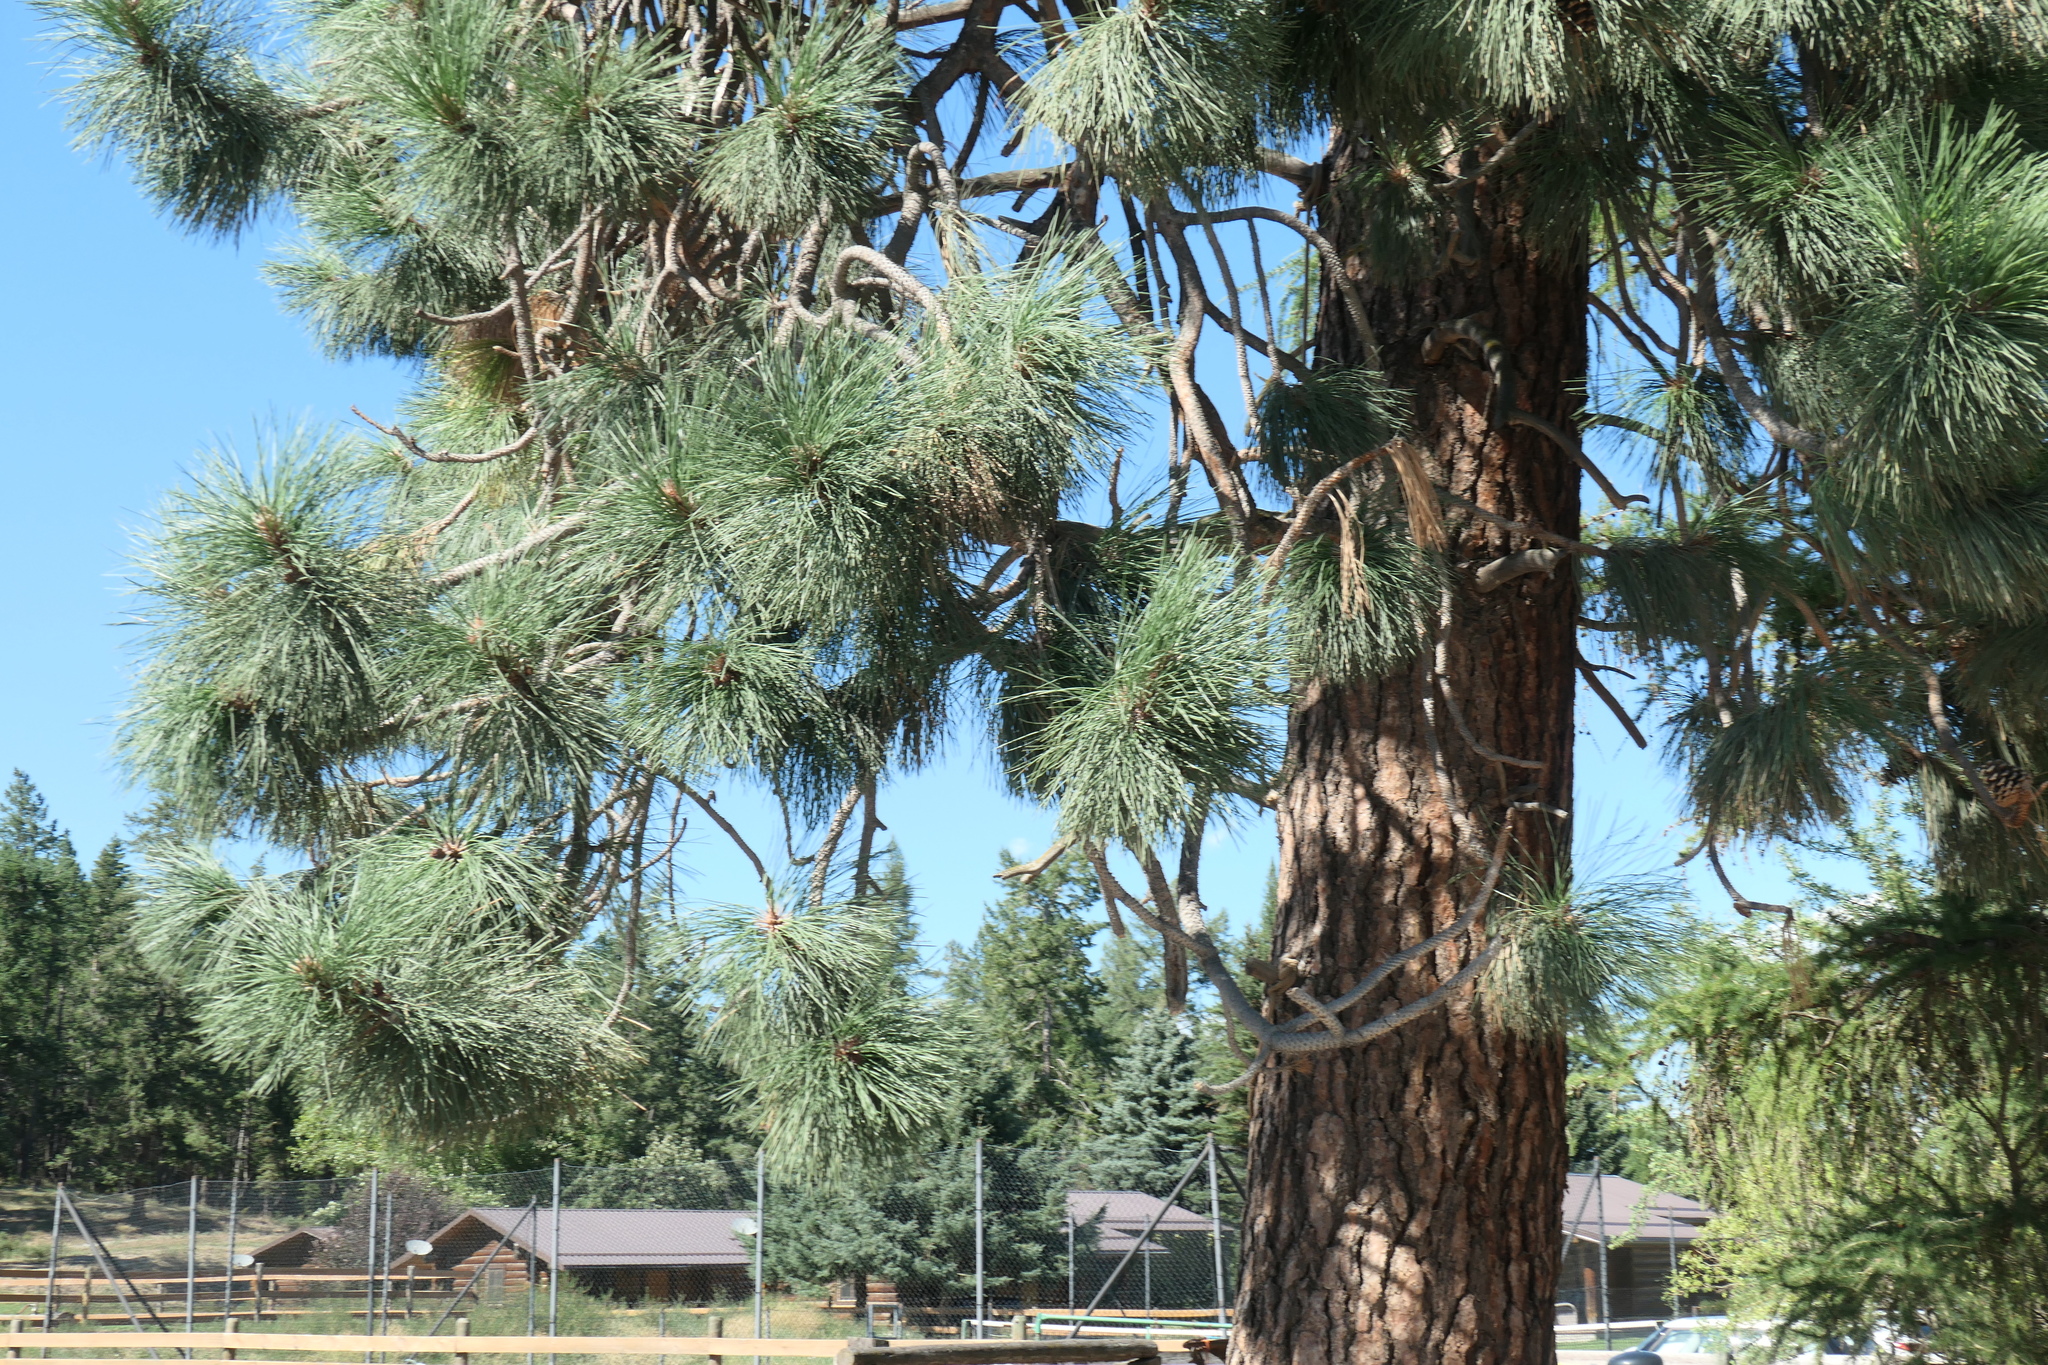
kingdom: Plantae
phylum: Tracheophyta
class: Pinopsida
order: Pinales
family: Pinaceae
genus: Pinus
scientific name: Pinus ponderosa
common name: Western yellow-pine
